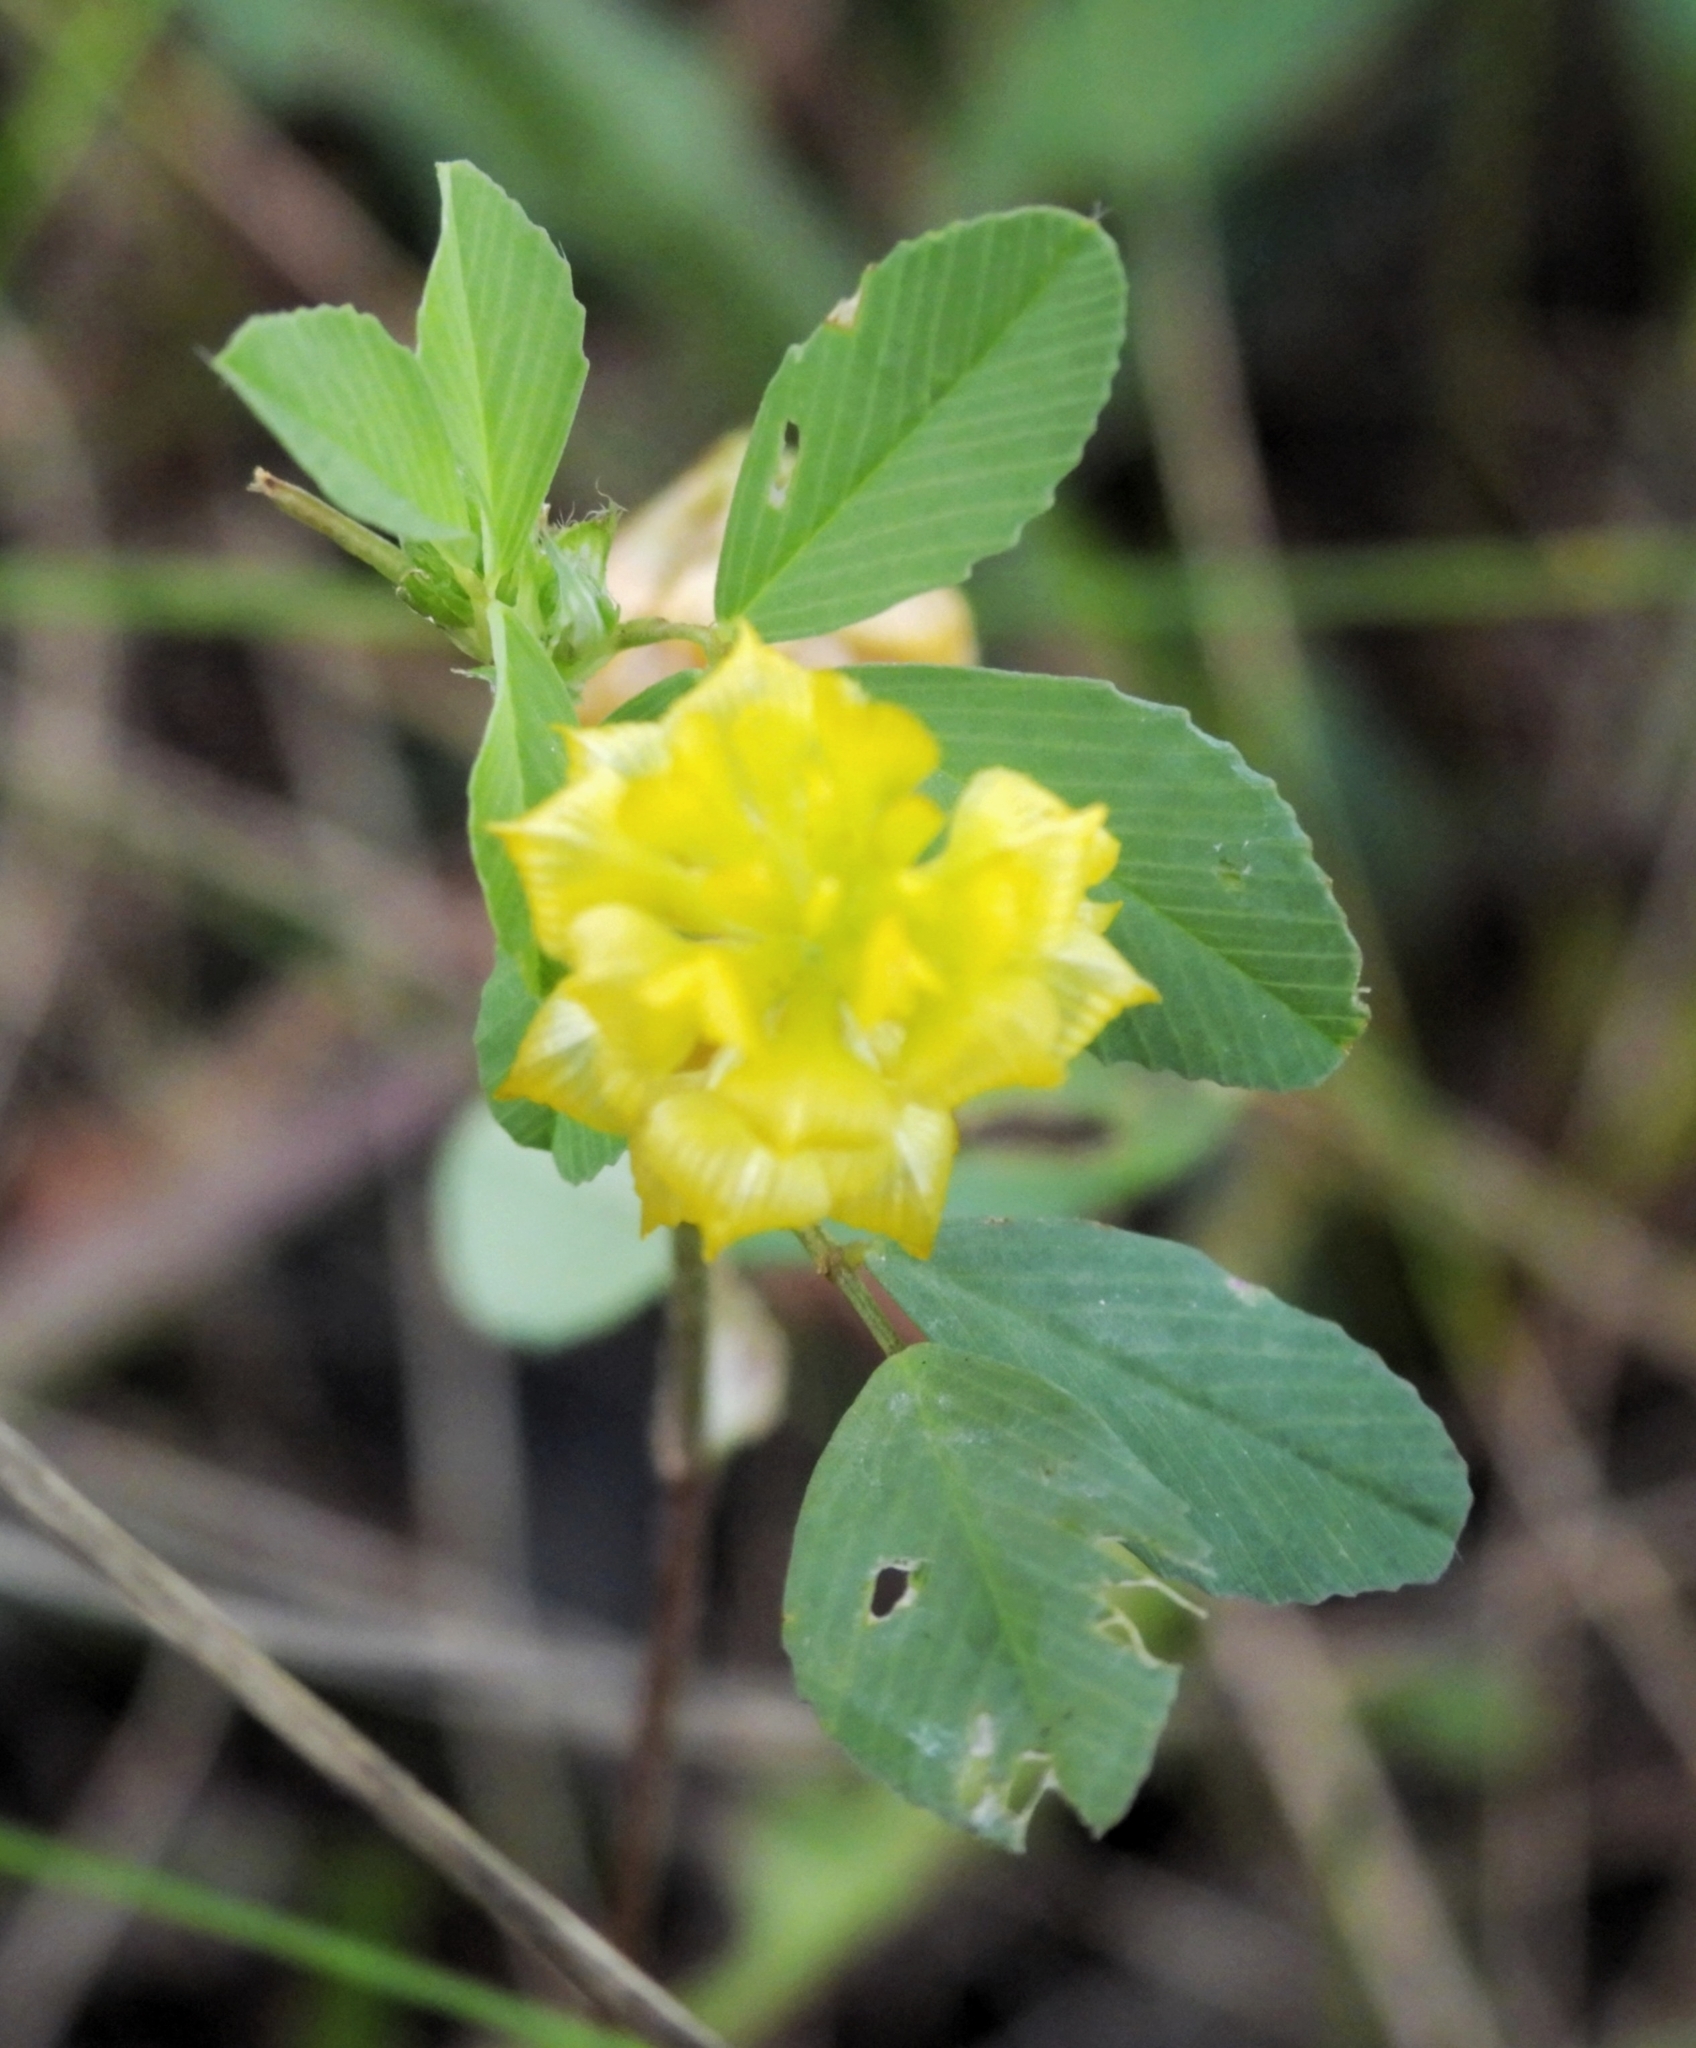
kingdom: Plantae
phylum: Tracheophyta
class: Magnoliopsida
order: Fabales
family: Fabaceae
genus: Trifolium
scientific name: Trifolium campestre
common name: Field clover
